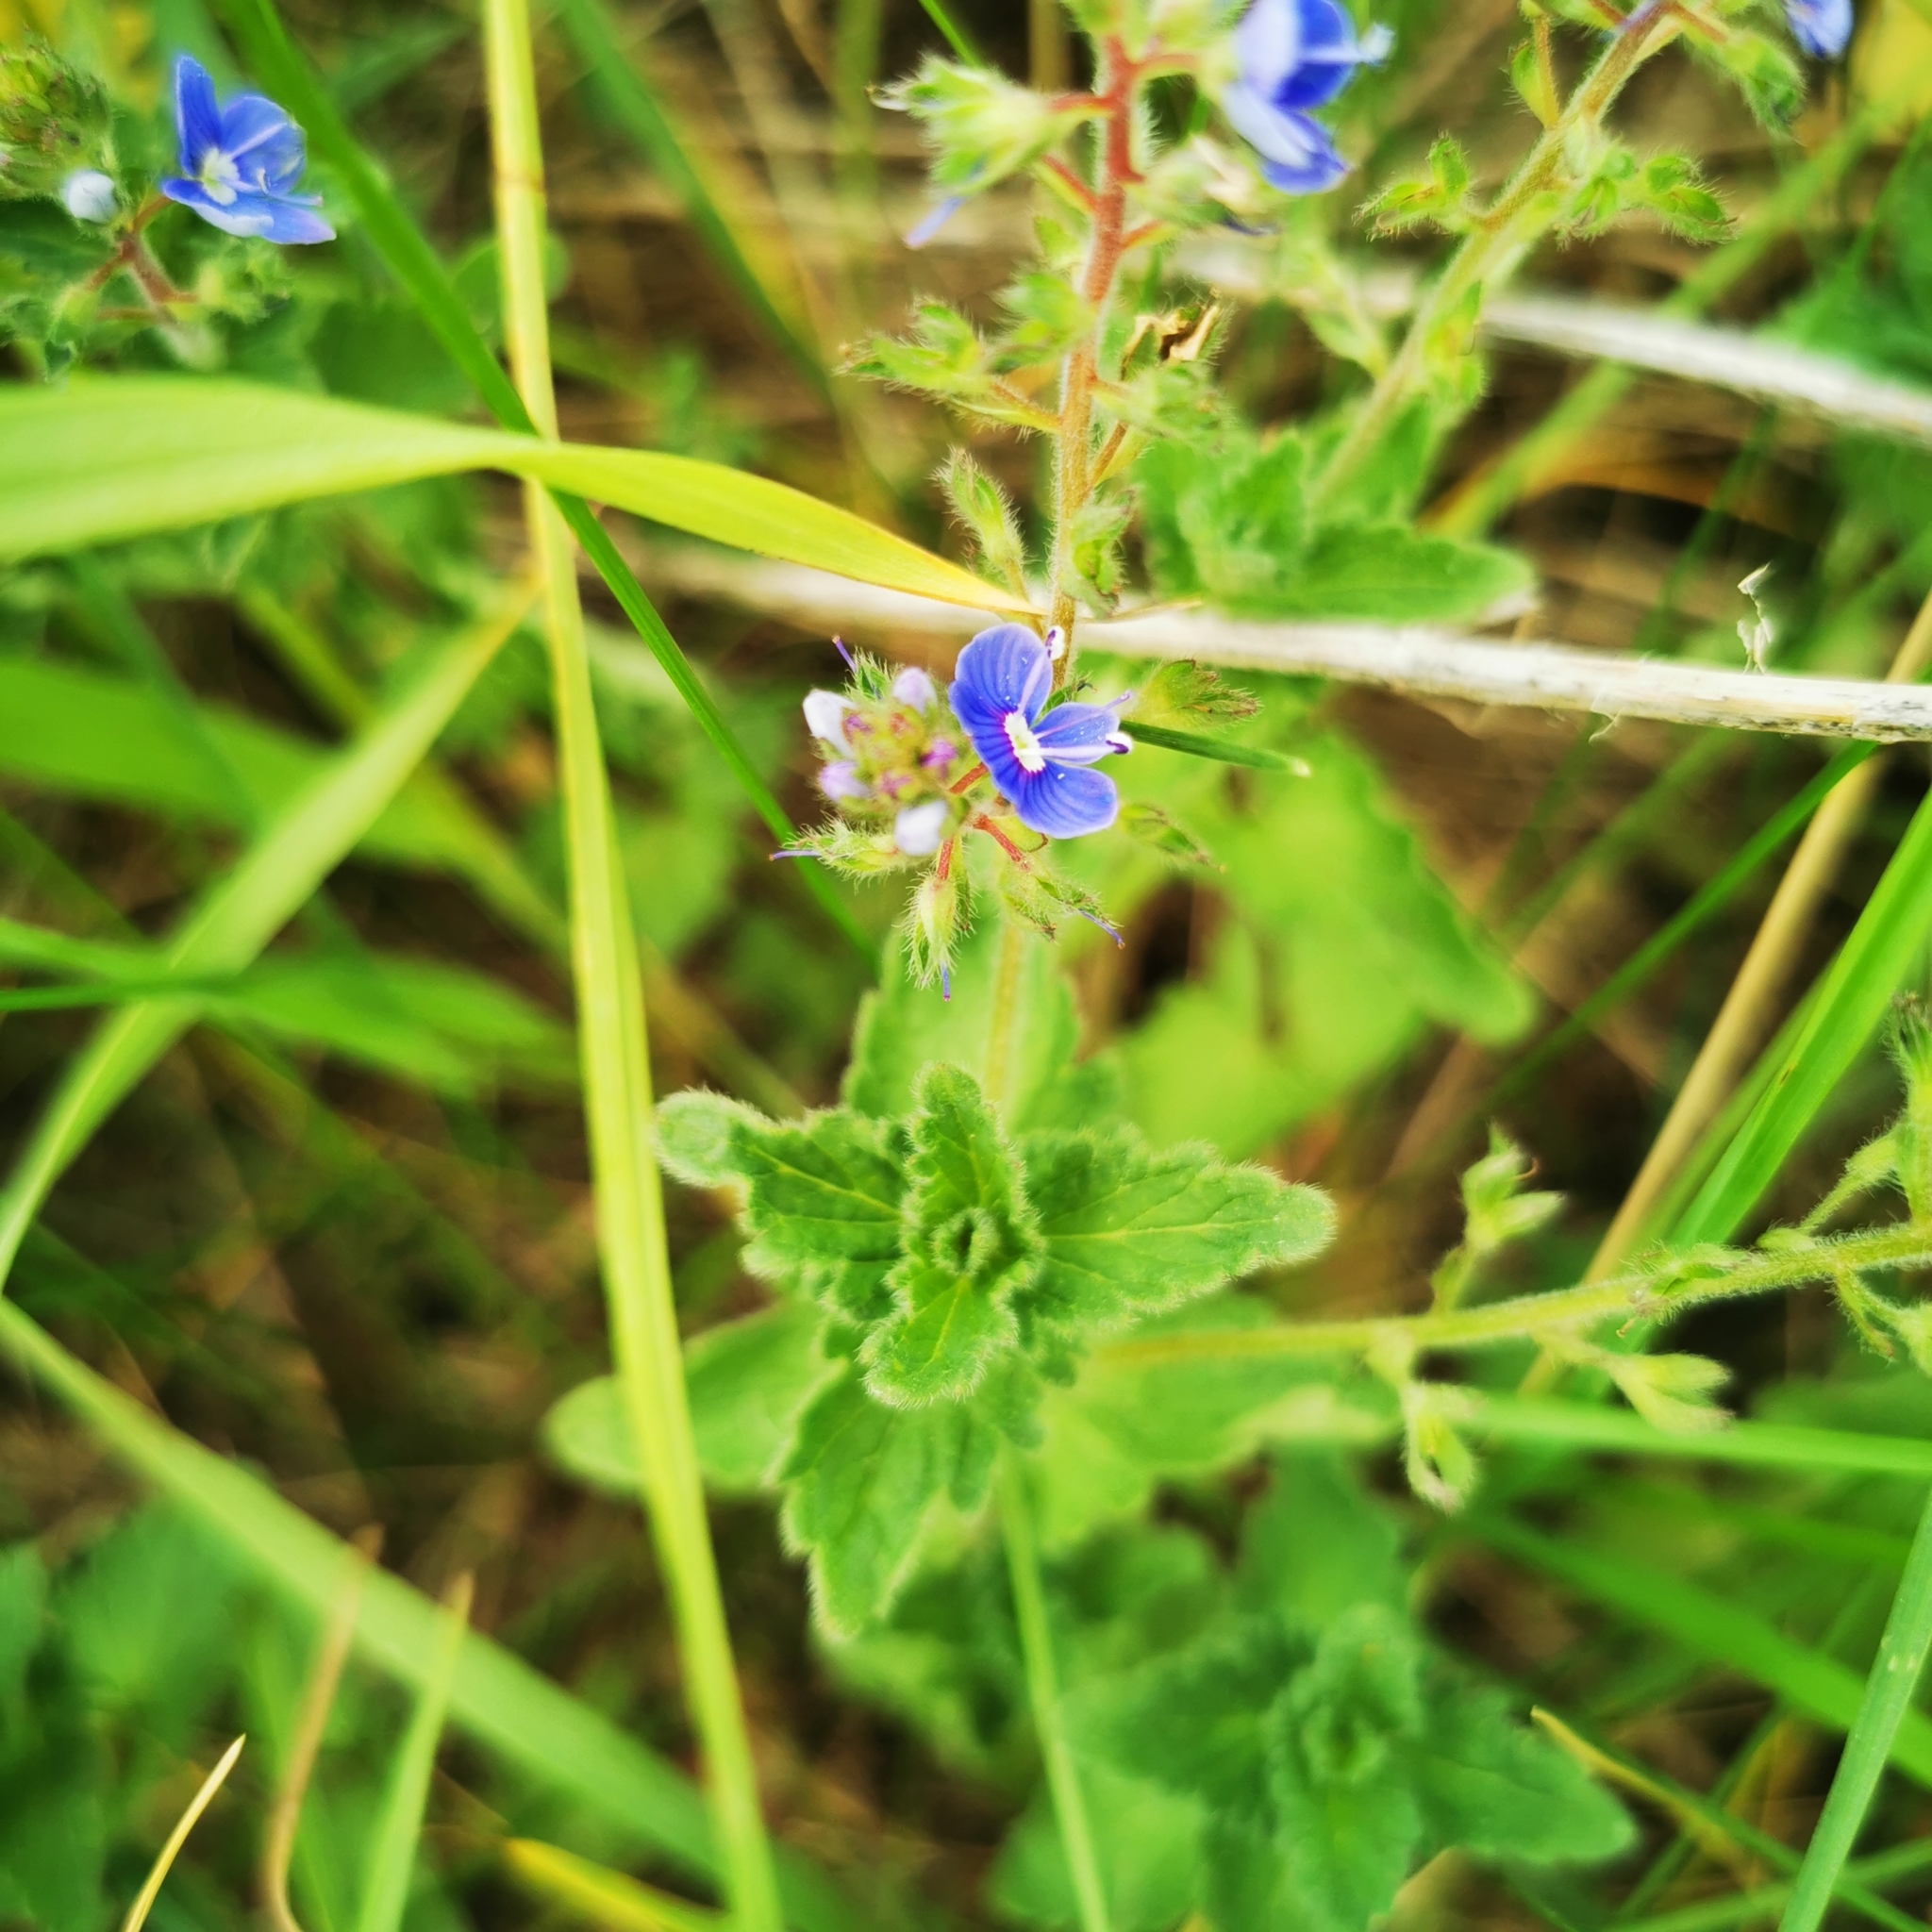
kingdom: Plantae
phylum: Tracheophyta
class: Magnoliopsida
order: Lamiales
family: Plantaginaceae
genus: Veronica
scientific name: Veronica chamaedrys
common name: Germander speedwell
